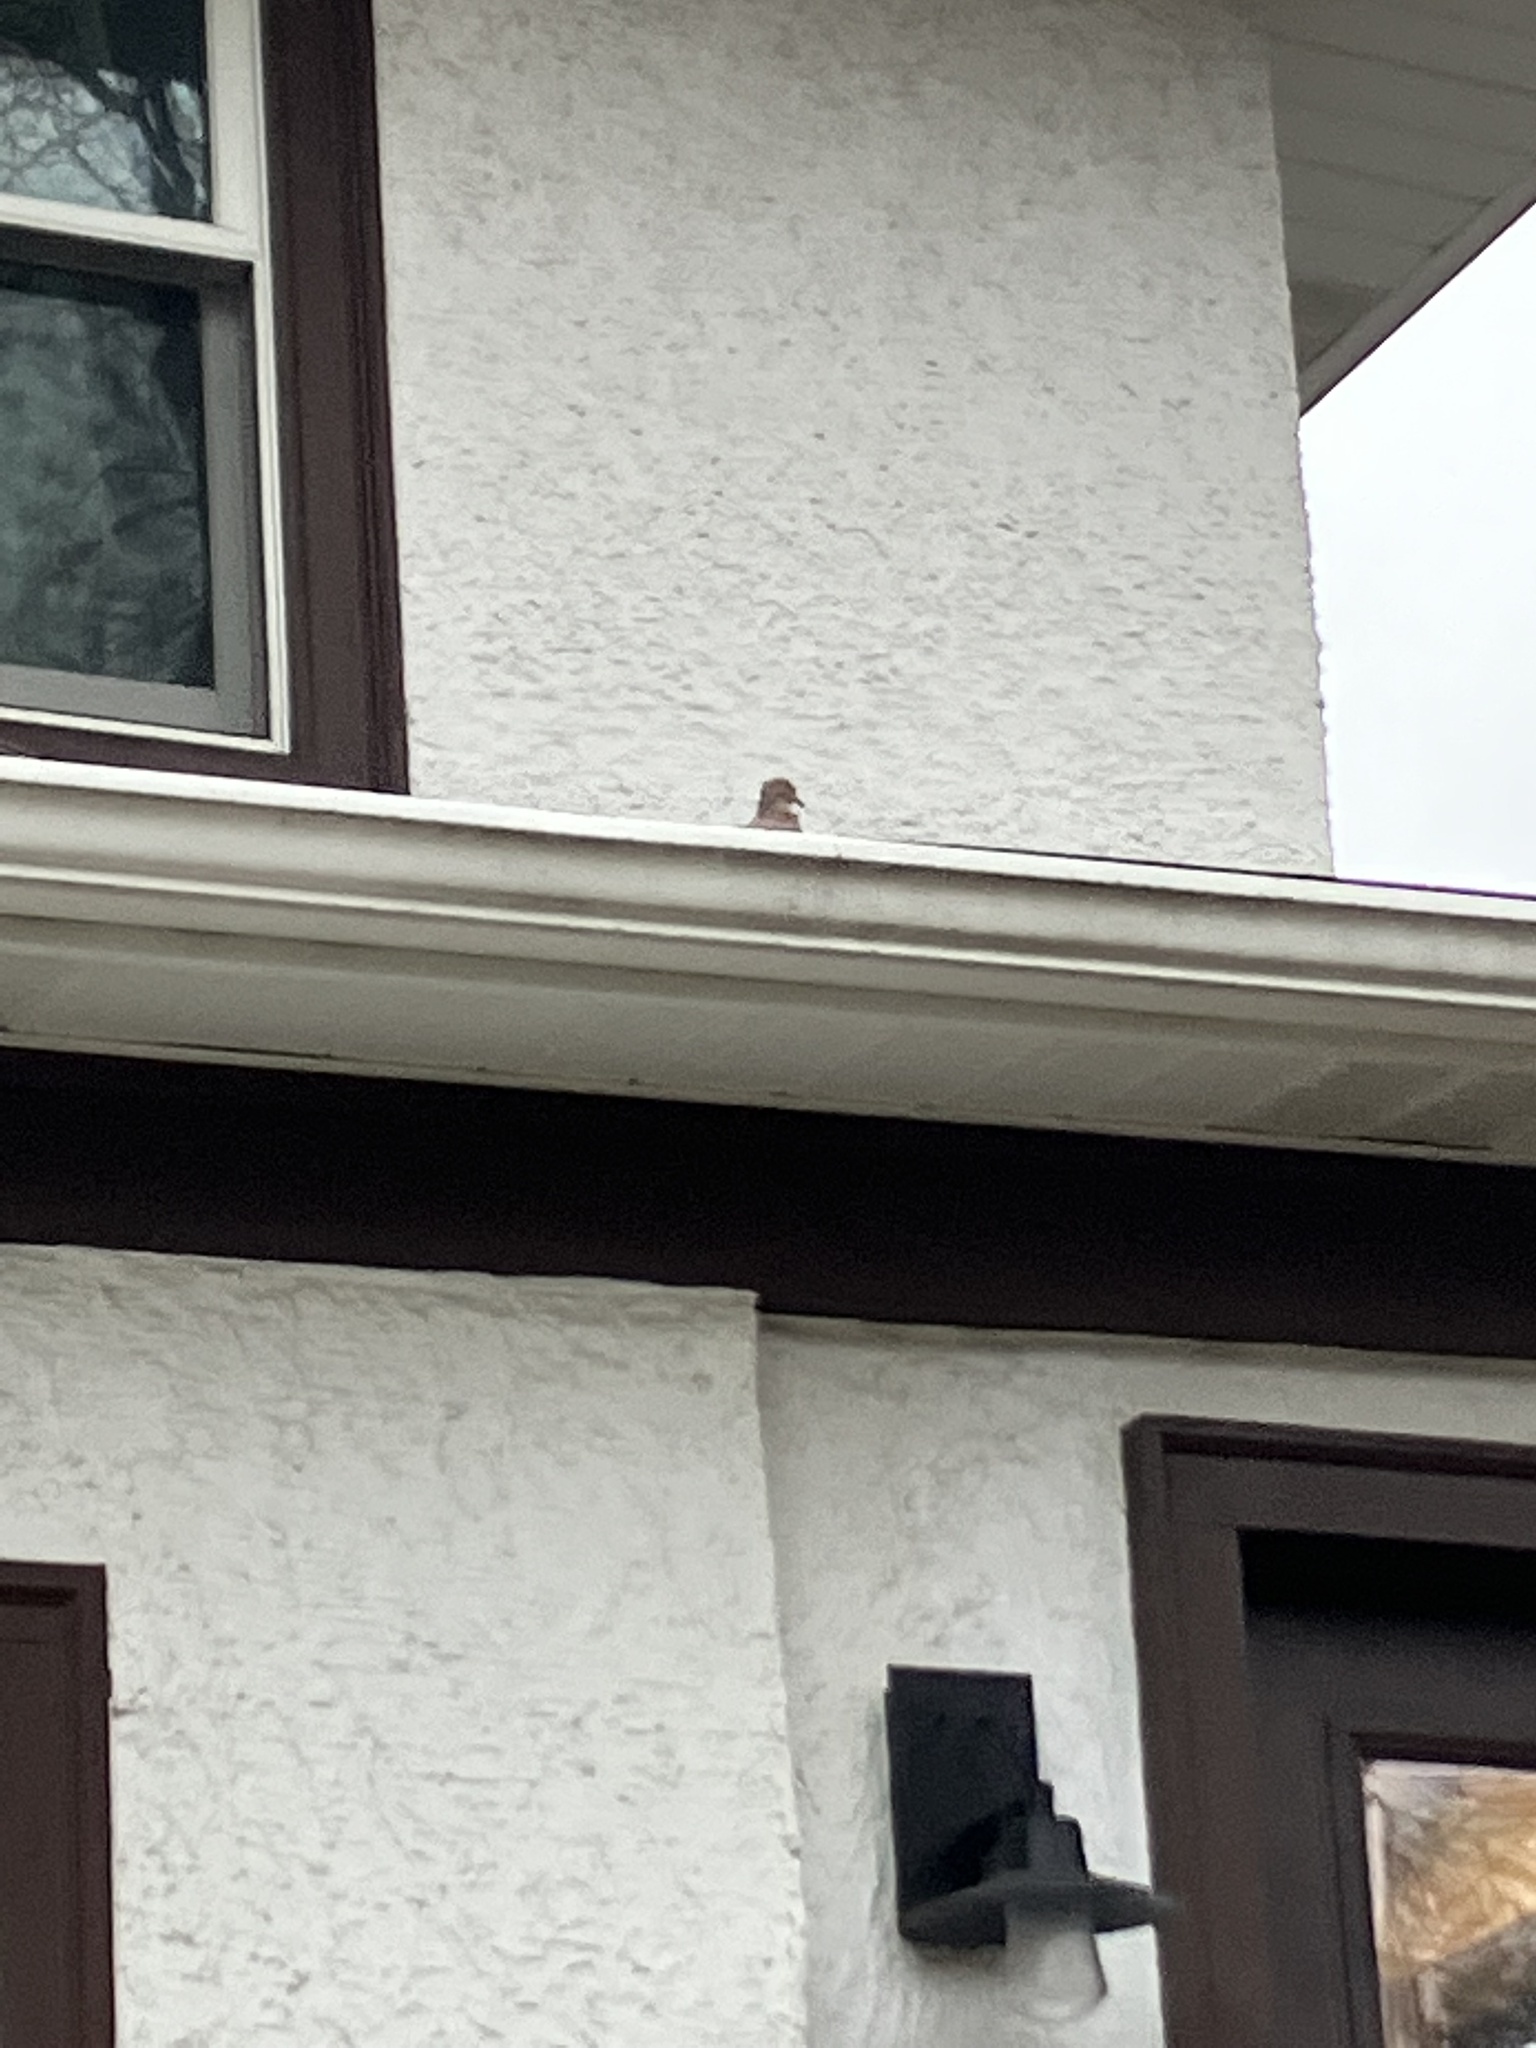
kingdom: Animalia
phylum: Chordata
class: Aves
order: Columbiformes
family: Columbidae
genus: Zenaida
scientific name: Zenaida macroura
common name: Mourning dove
